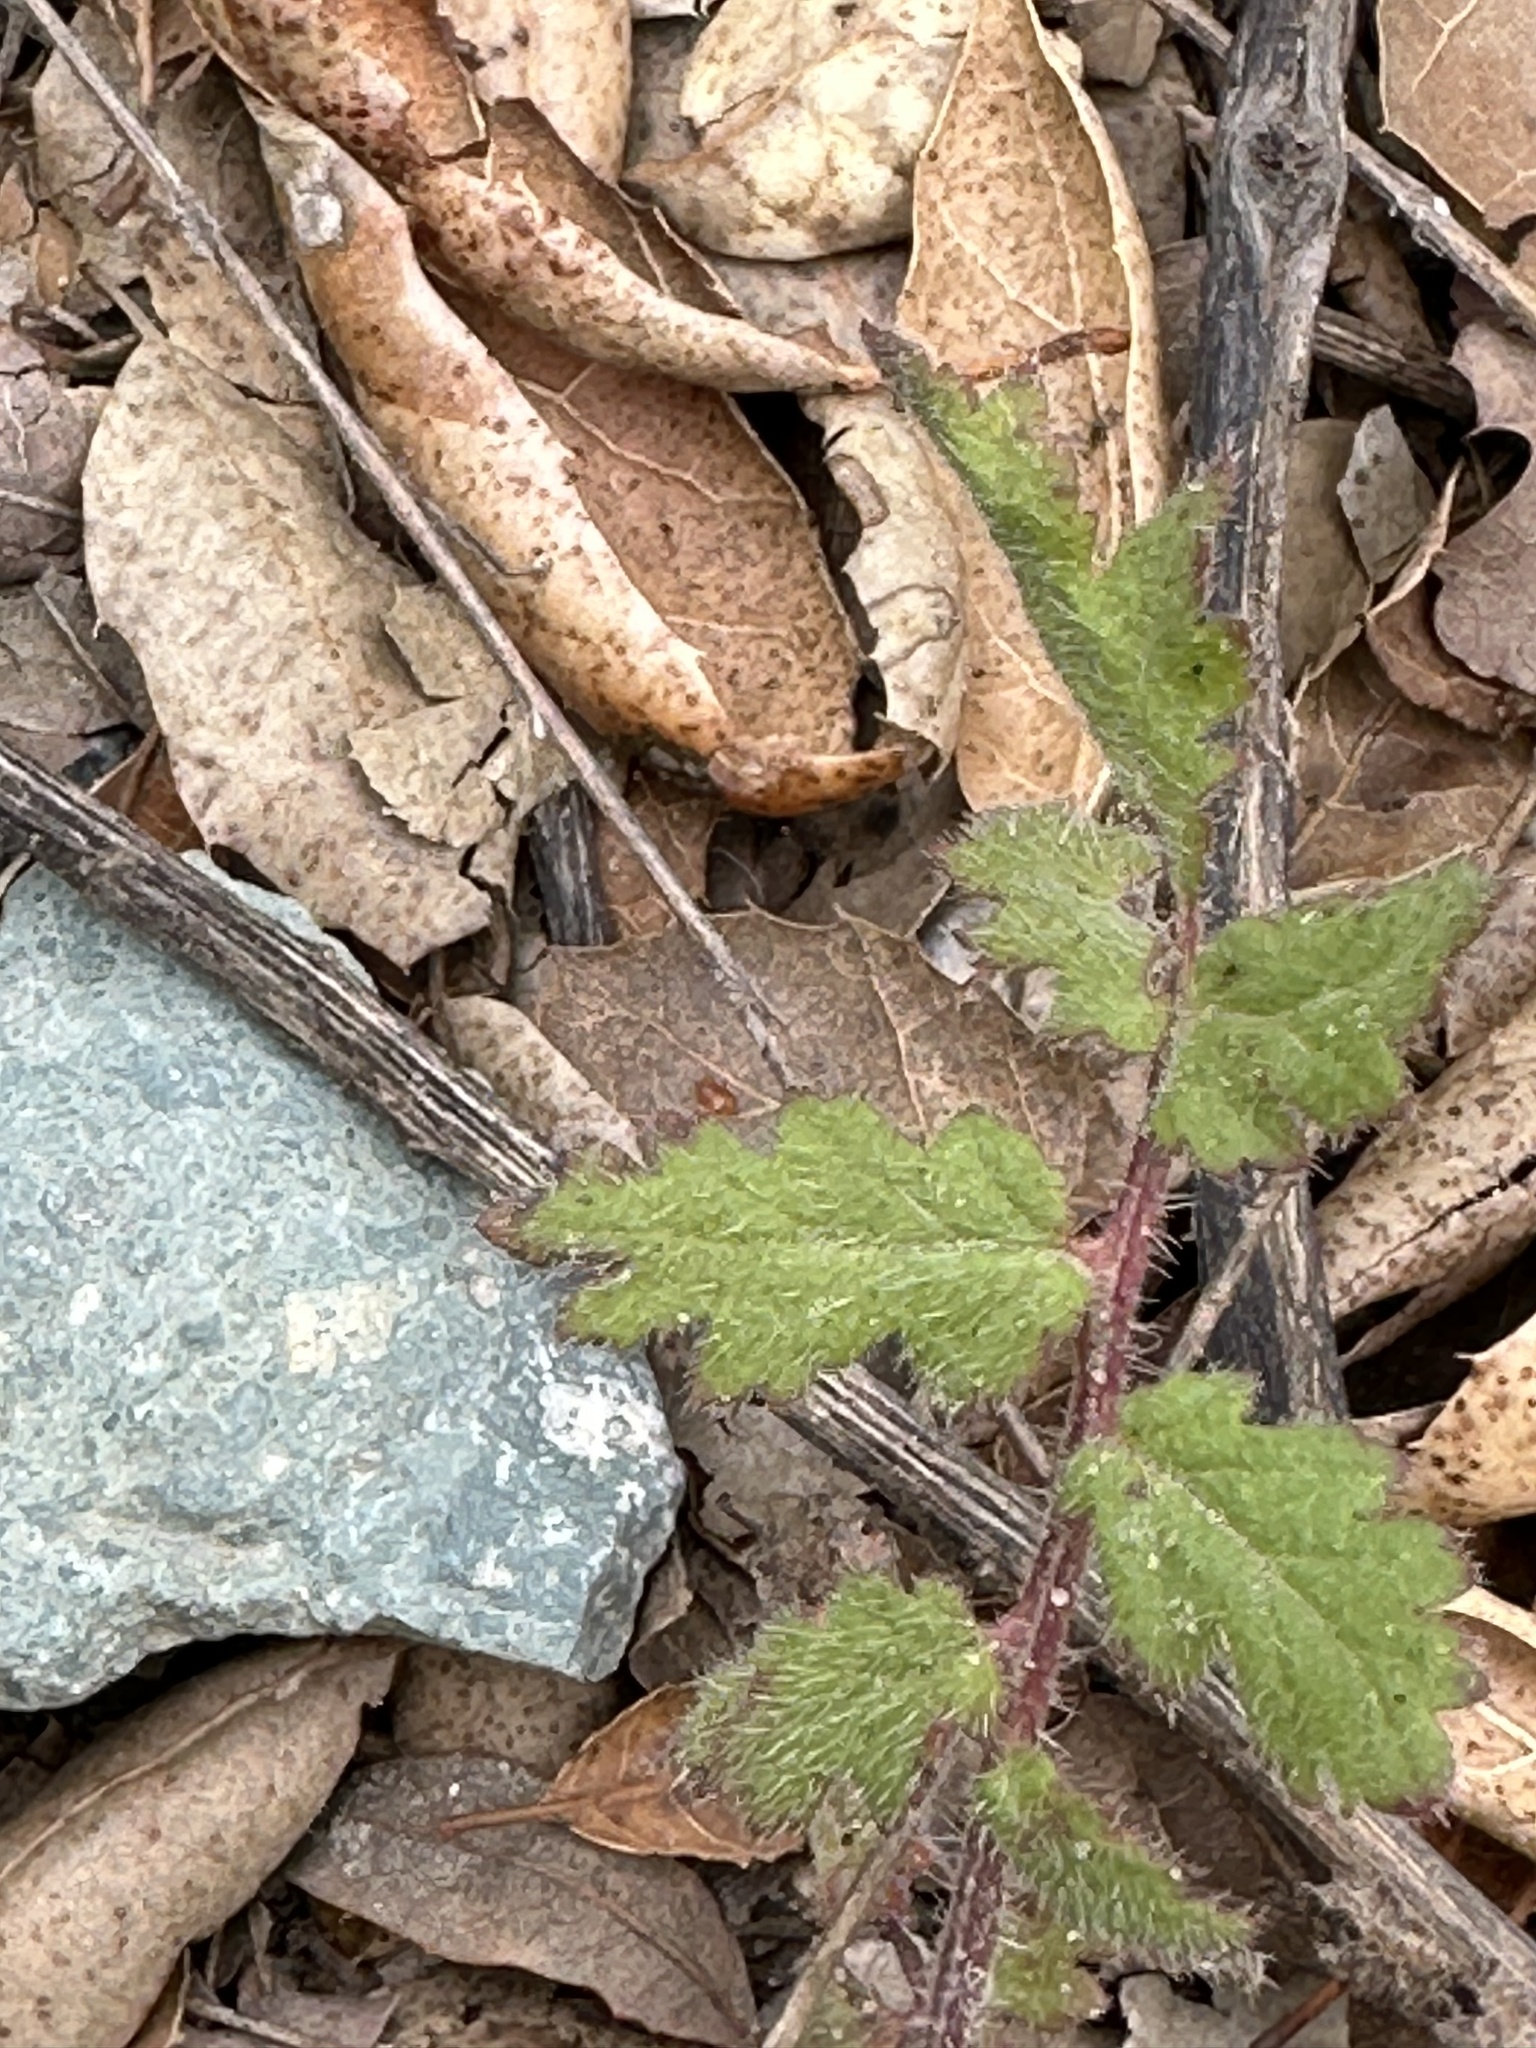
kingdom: Plantae
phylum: Tracheophyta
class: Magnoliopsida
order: Boraginales
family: Hydrophyllaceae
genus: Phacelia
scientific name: Phacelia cicutaria
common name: Caterpillar phacelia
